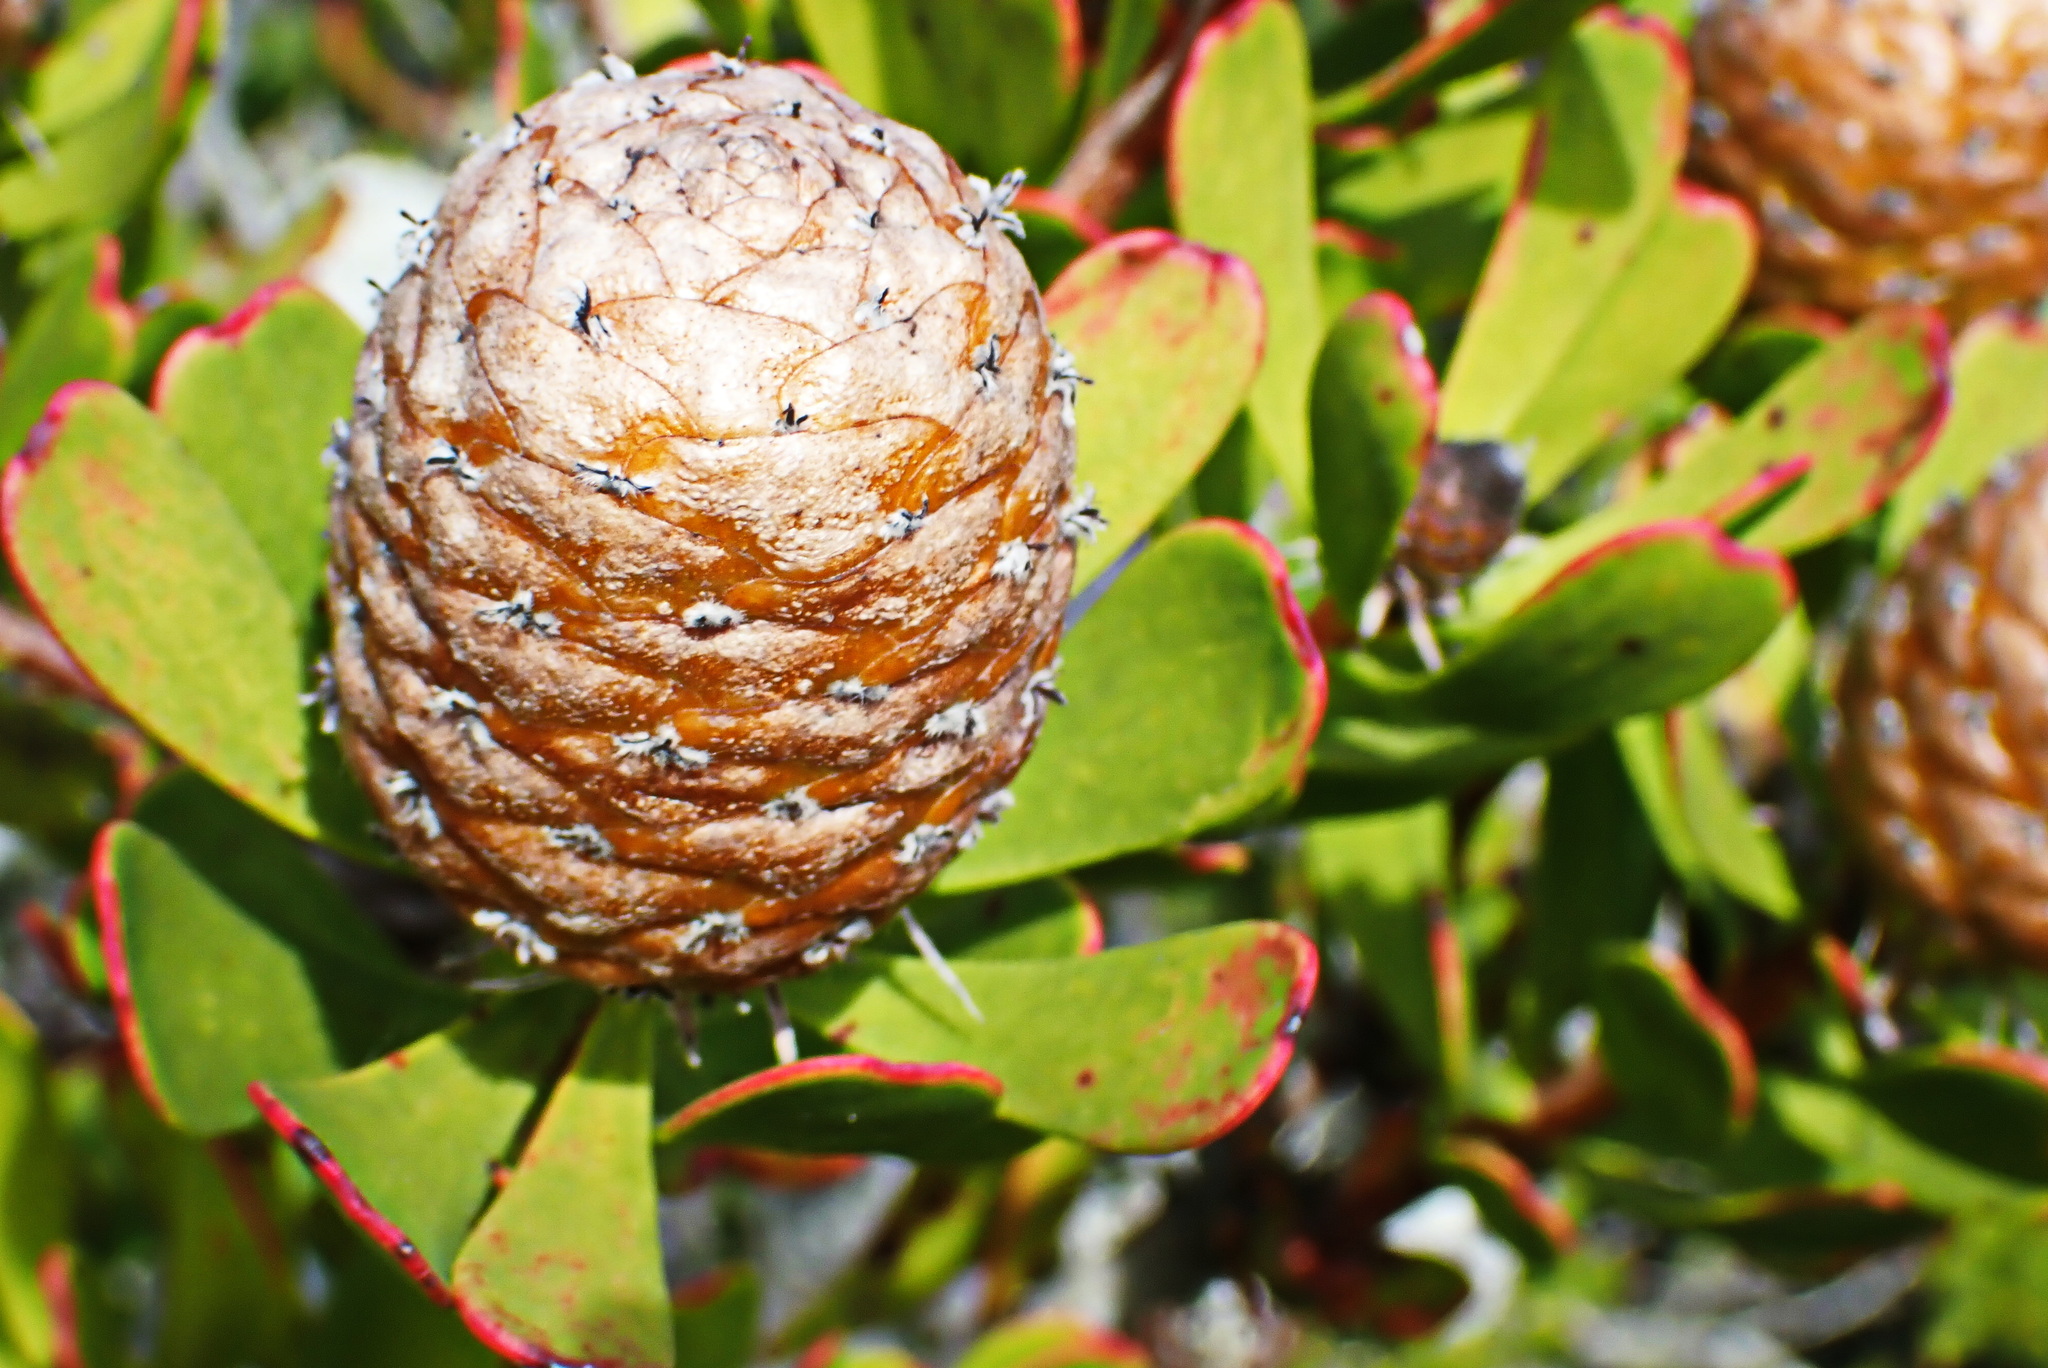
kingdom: Plantae
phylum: Tracheophyta
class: Magnoliopsida
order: Proteales
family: Proteaceae
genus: Leucadendron
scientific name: Leucadendron muirii
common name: Silver-ball conebush
